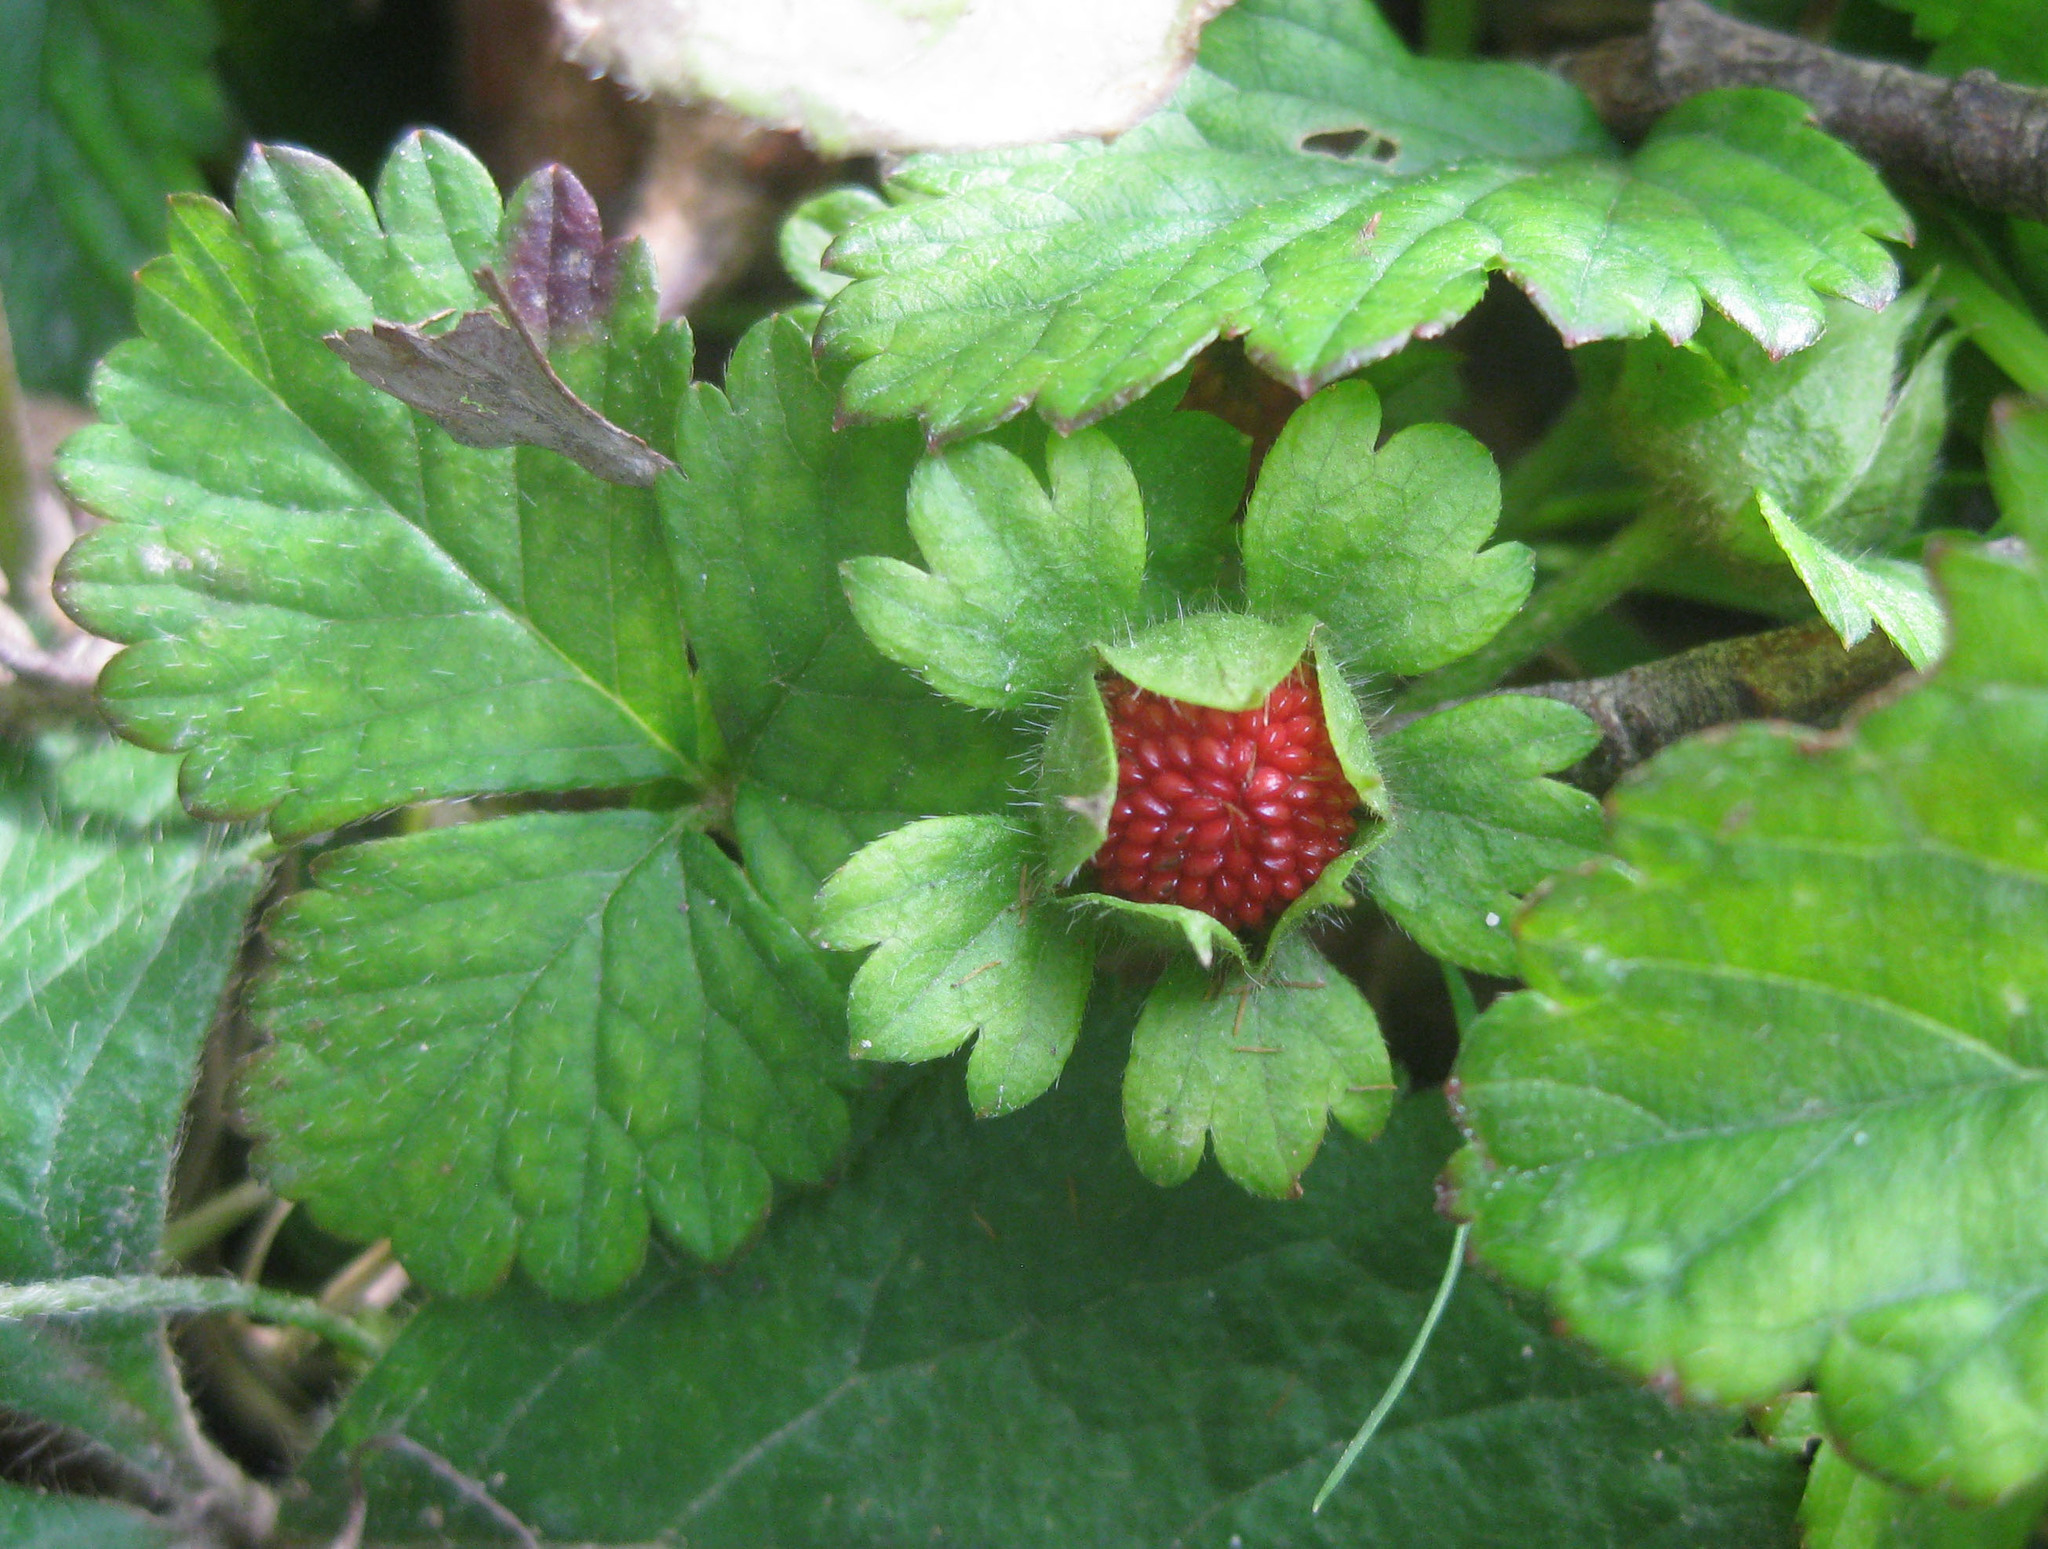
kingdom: Plantae
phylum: Tracheophyta
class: Magnoliopsida
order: Rosales
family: Rosaceae
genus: Potentilla
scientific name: Potentilla indica
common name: Yellow-flowered strawberry
